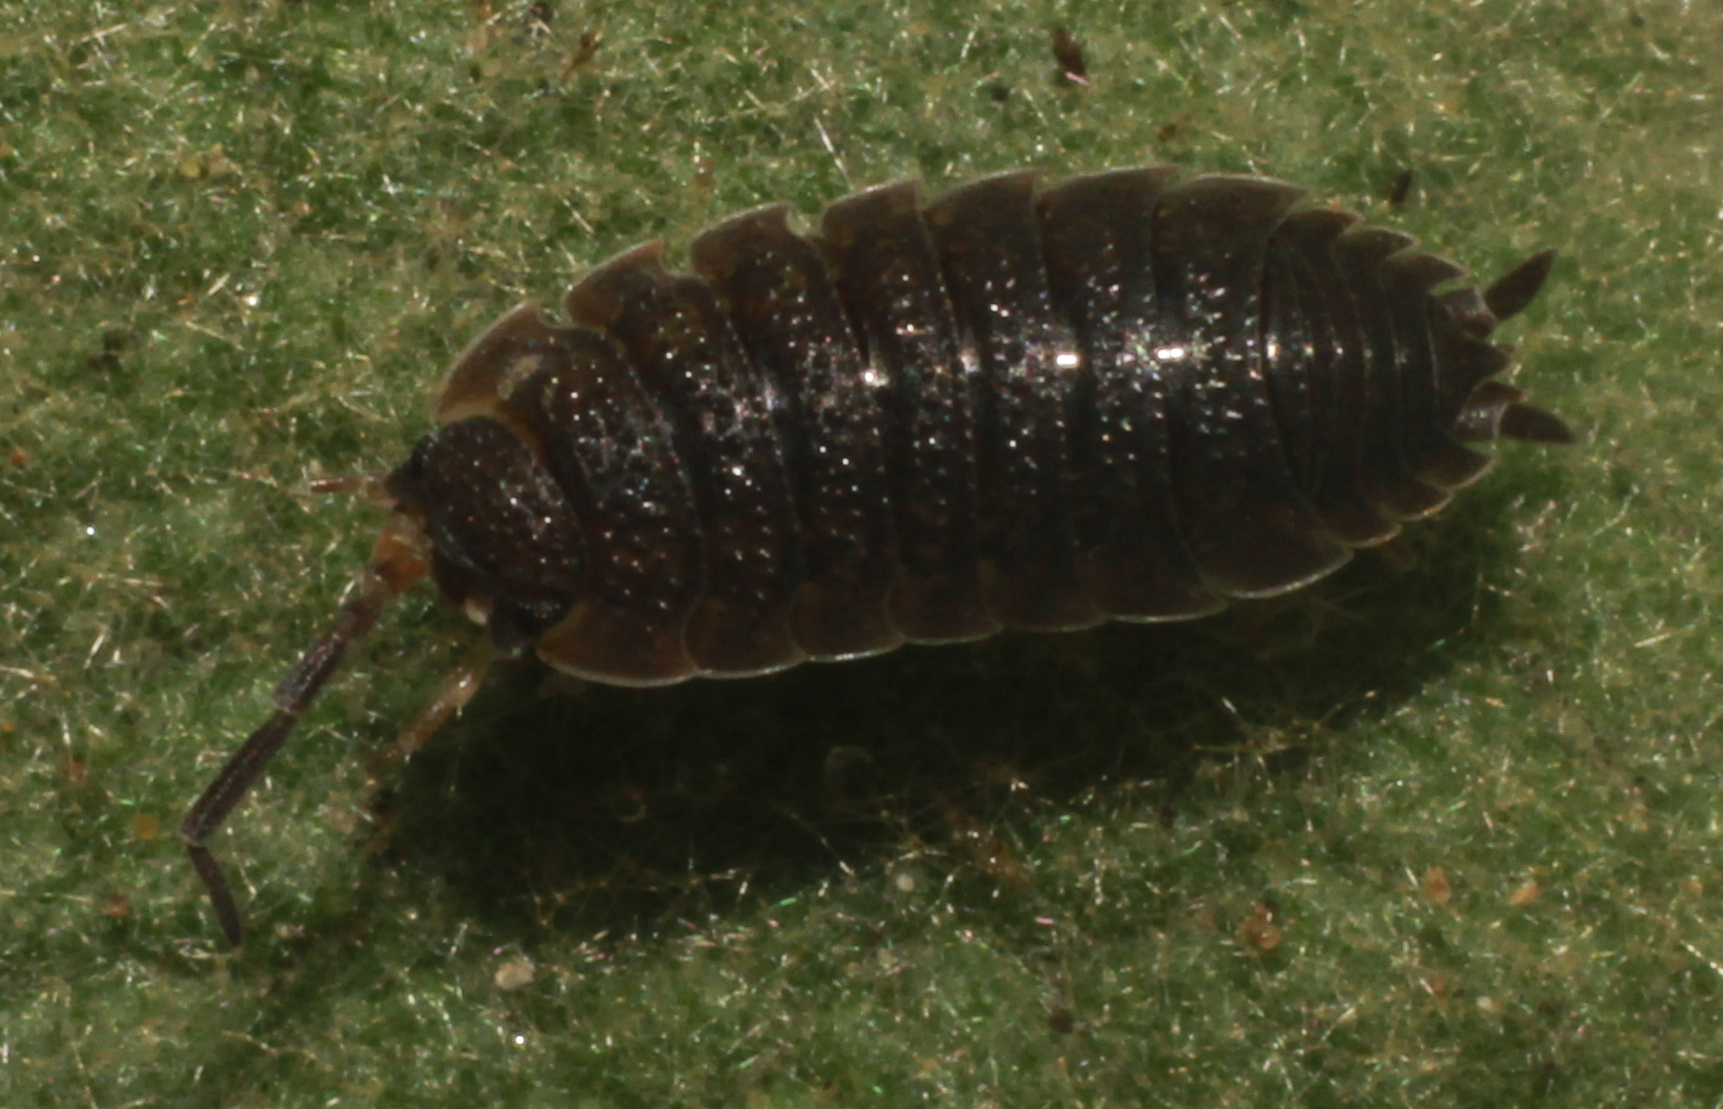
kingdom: Animalia
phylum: Arthropoda
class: Malacostraca
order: Isopoda
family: Porcellionidae
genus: Porcellio
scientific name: Porcellio scaber
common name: Common rough woodlouse
